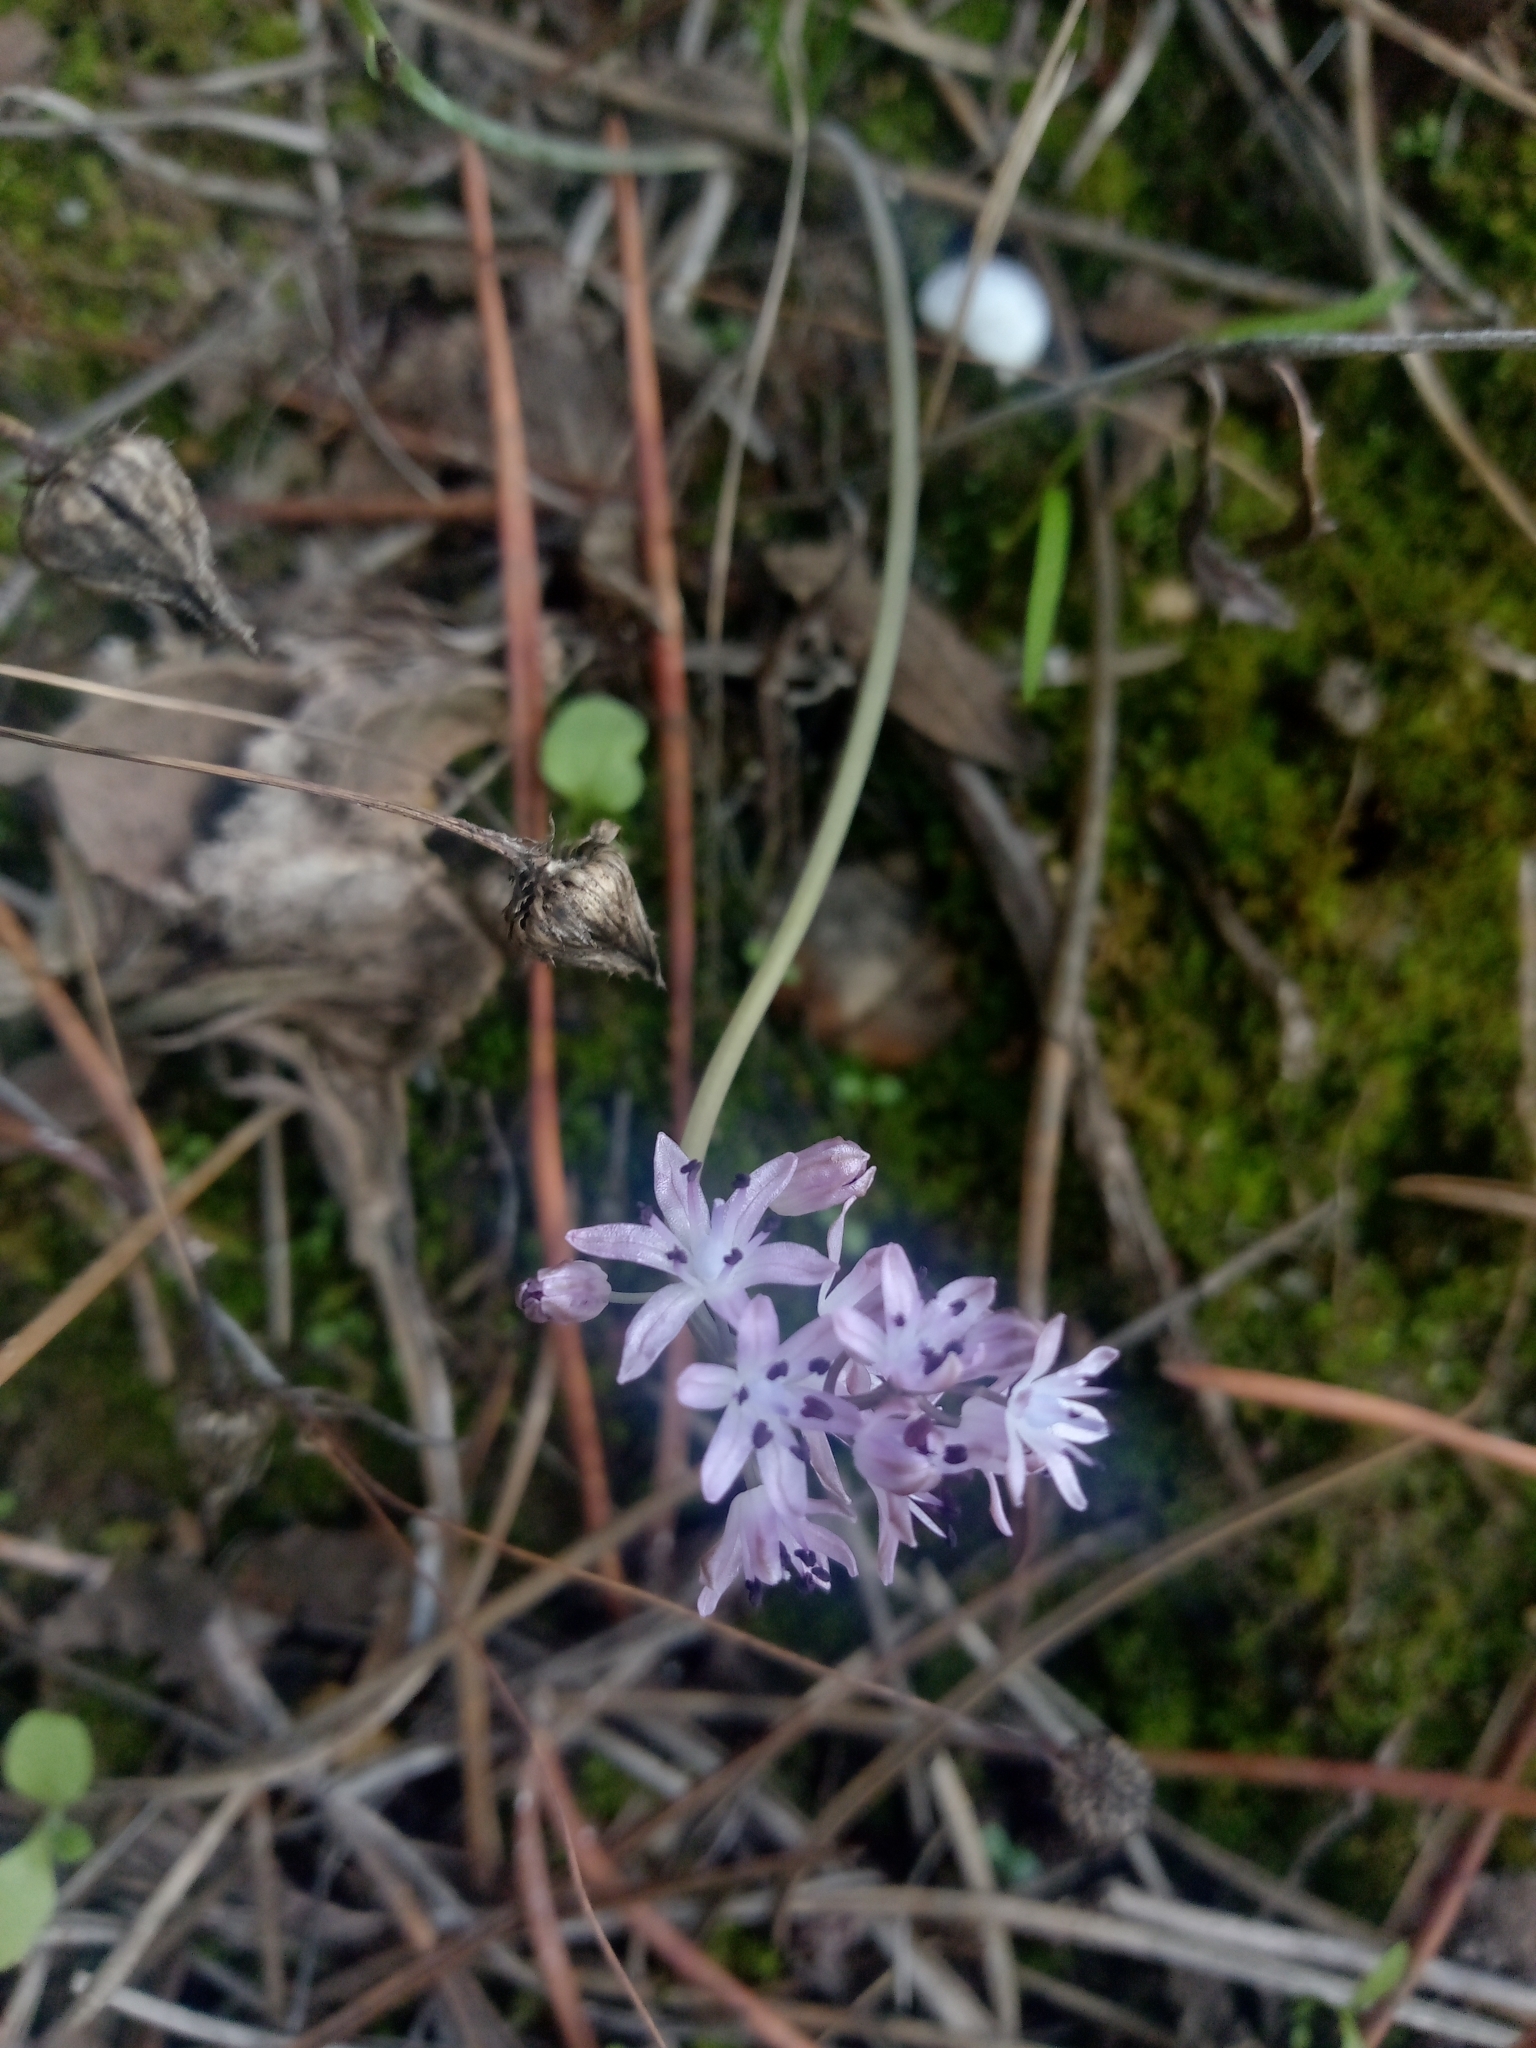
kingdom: Plantae
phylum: Tracheophyta
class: Liliopsida
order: Asparagales
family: Asparagaceae
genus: Prospero
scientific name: Prospero autumnale
